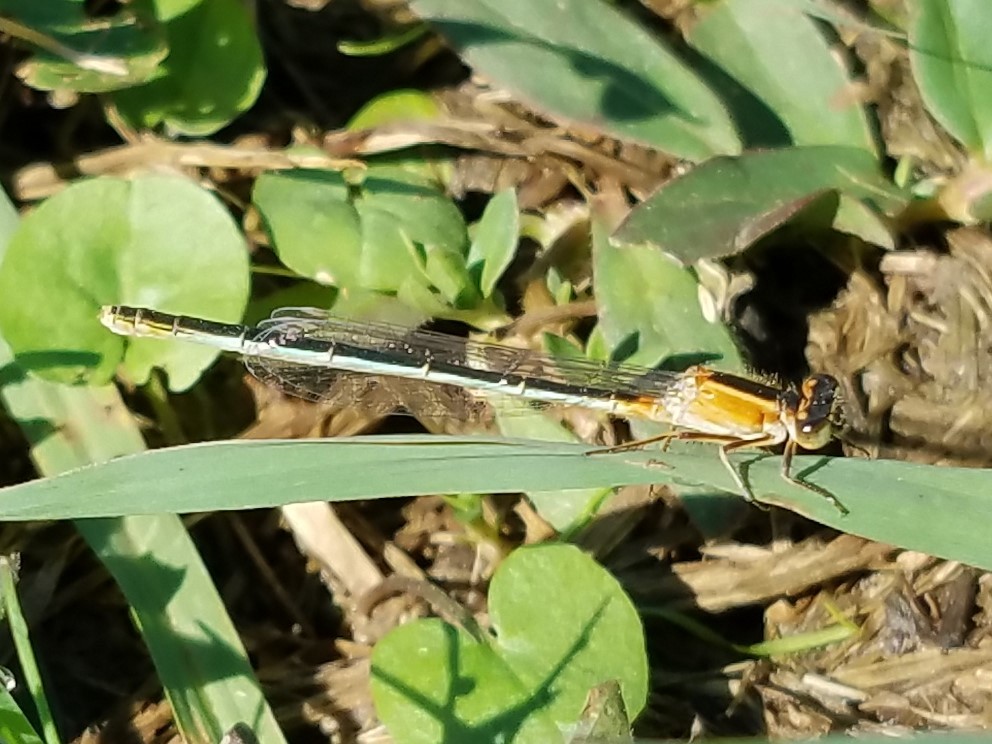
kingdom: Animalia
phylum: Arthropoda
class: Insecta
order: Odonata
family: Coenagrionidae
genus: Ischnura
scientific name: Ischnura ramburii
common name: Rambur's forktail
